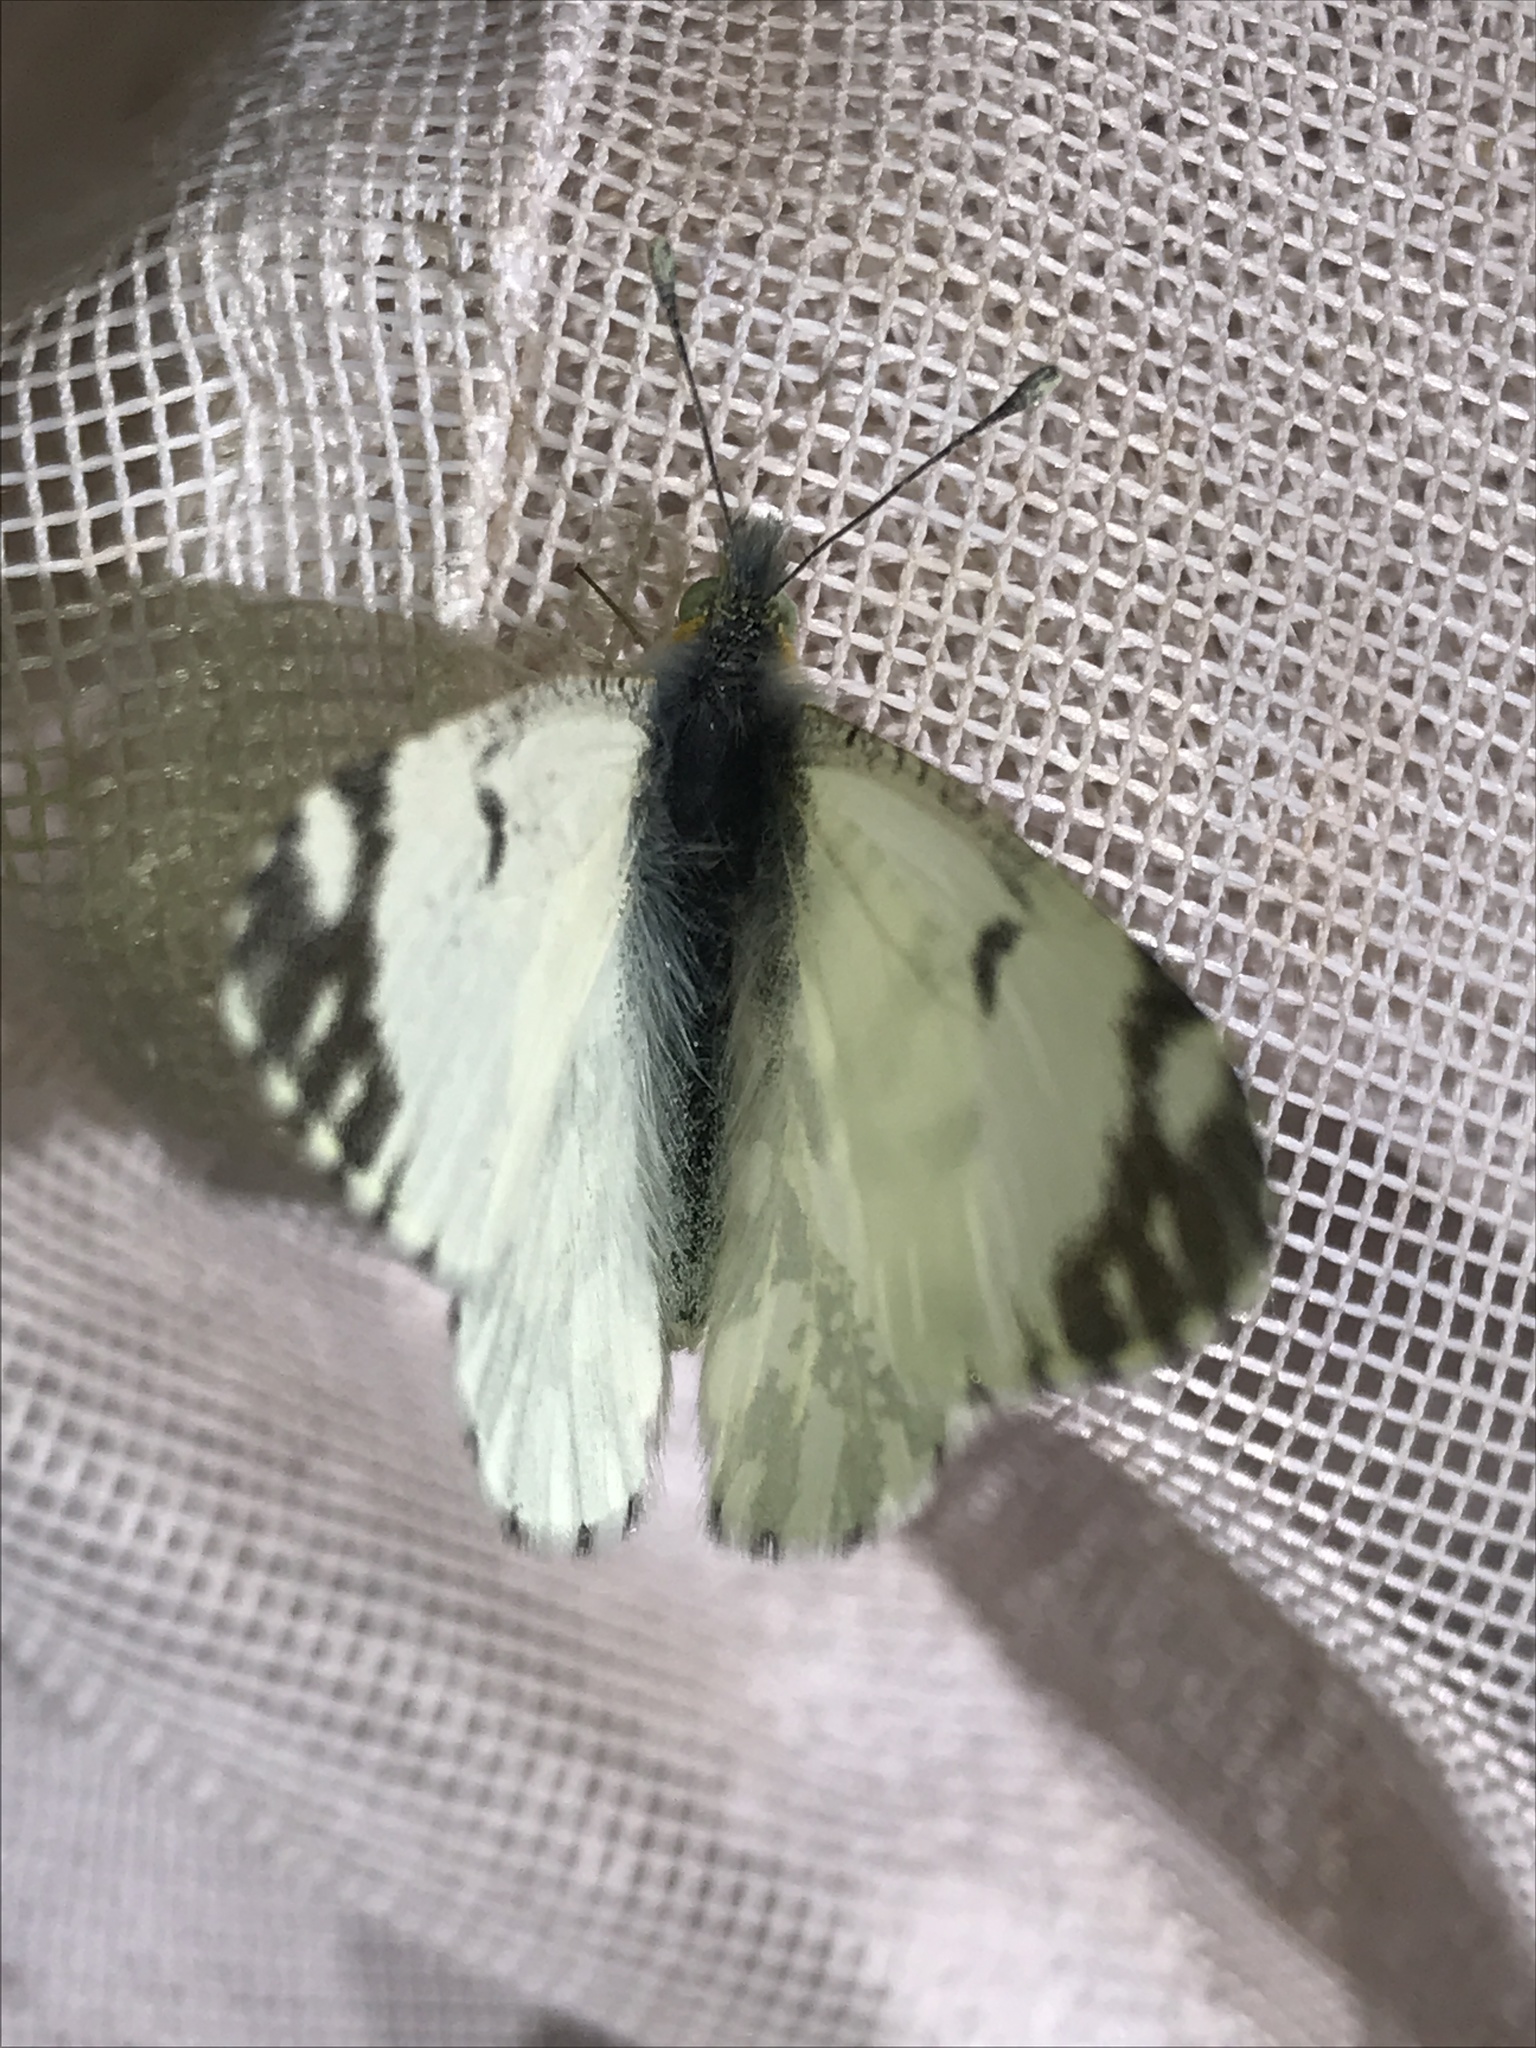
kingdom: Animalia
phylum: Arthropoda
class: Insecta
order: Lepidoptera
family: Pieridae
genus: Euchloe
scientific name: Euchloe ausonides
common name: Creamy marblewing
